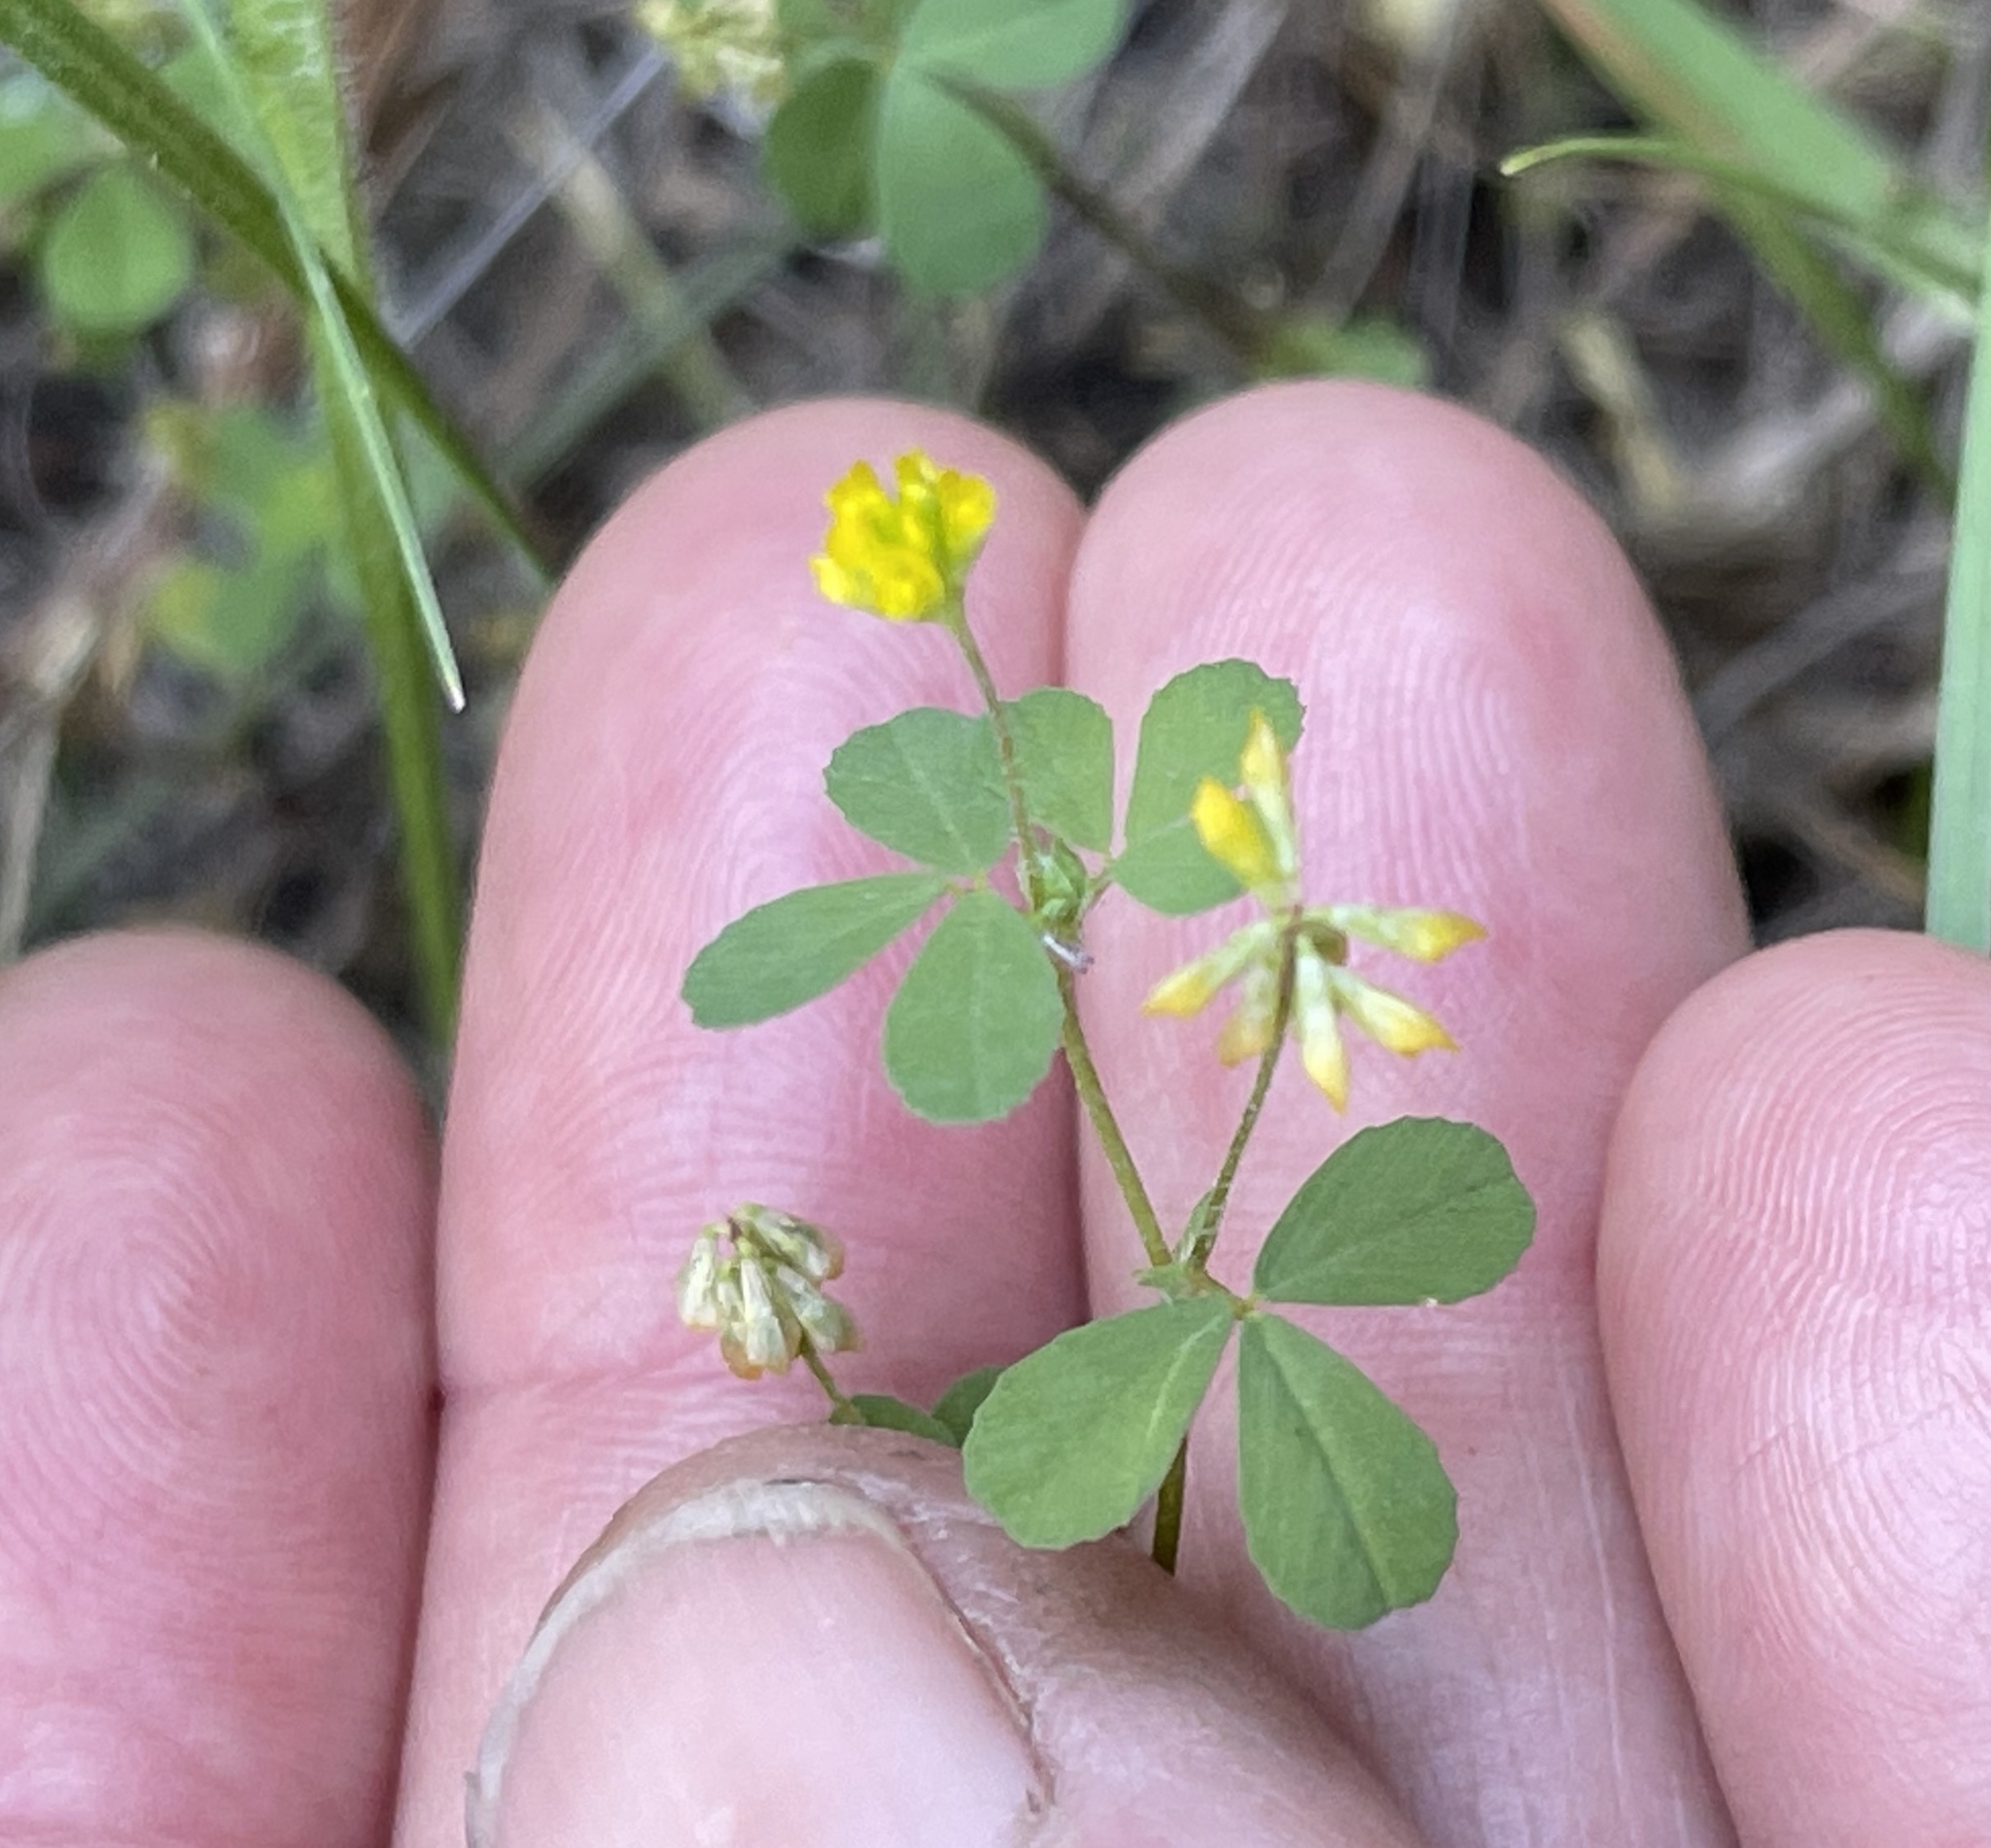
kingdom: Plantae
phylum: Tracheophyta
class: Magnoliopsida
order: Fabales
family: Fabaceae
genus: Trifolium
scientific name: Trifolium dubium
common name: Suckling clover
